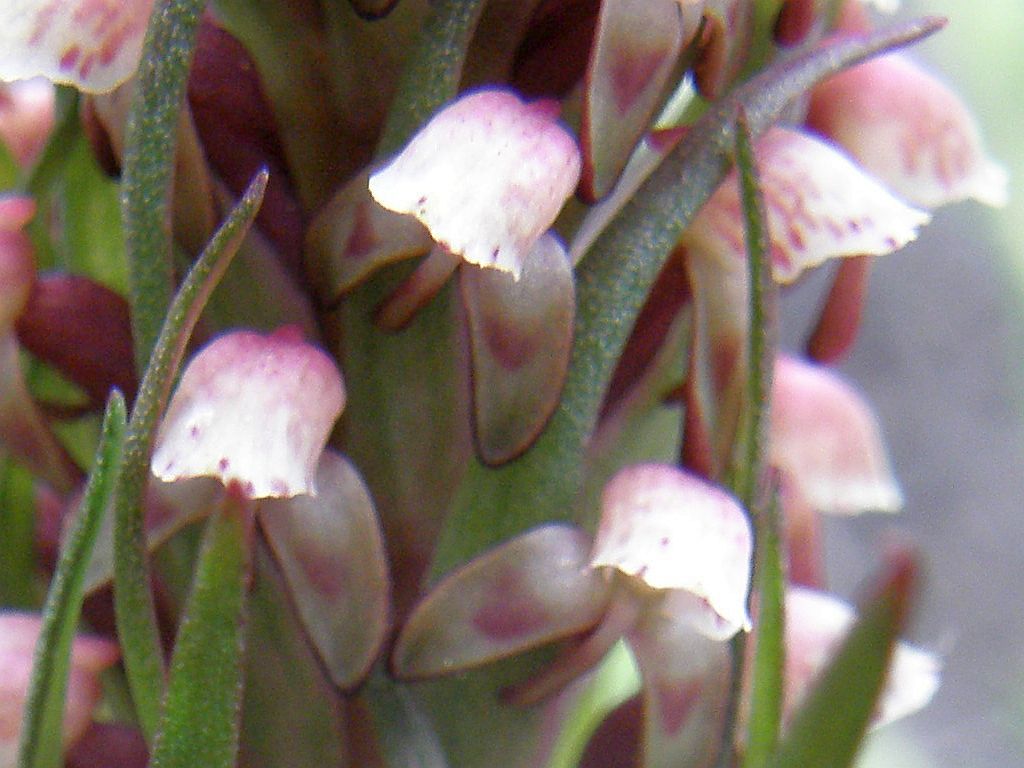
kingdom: Plantae
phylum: Tracheophyta
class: Liliopsida
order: Asparagales
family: Orchidaceae
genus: Disa
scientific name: Disa micropetala
